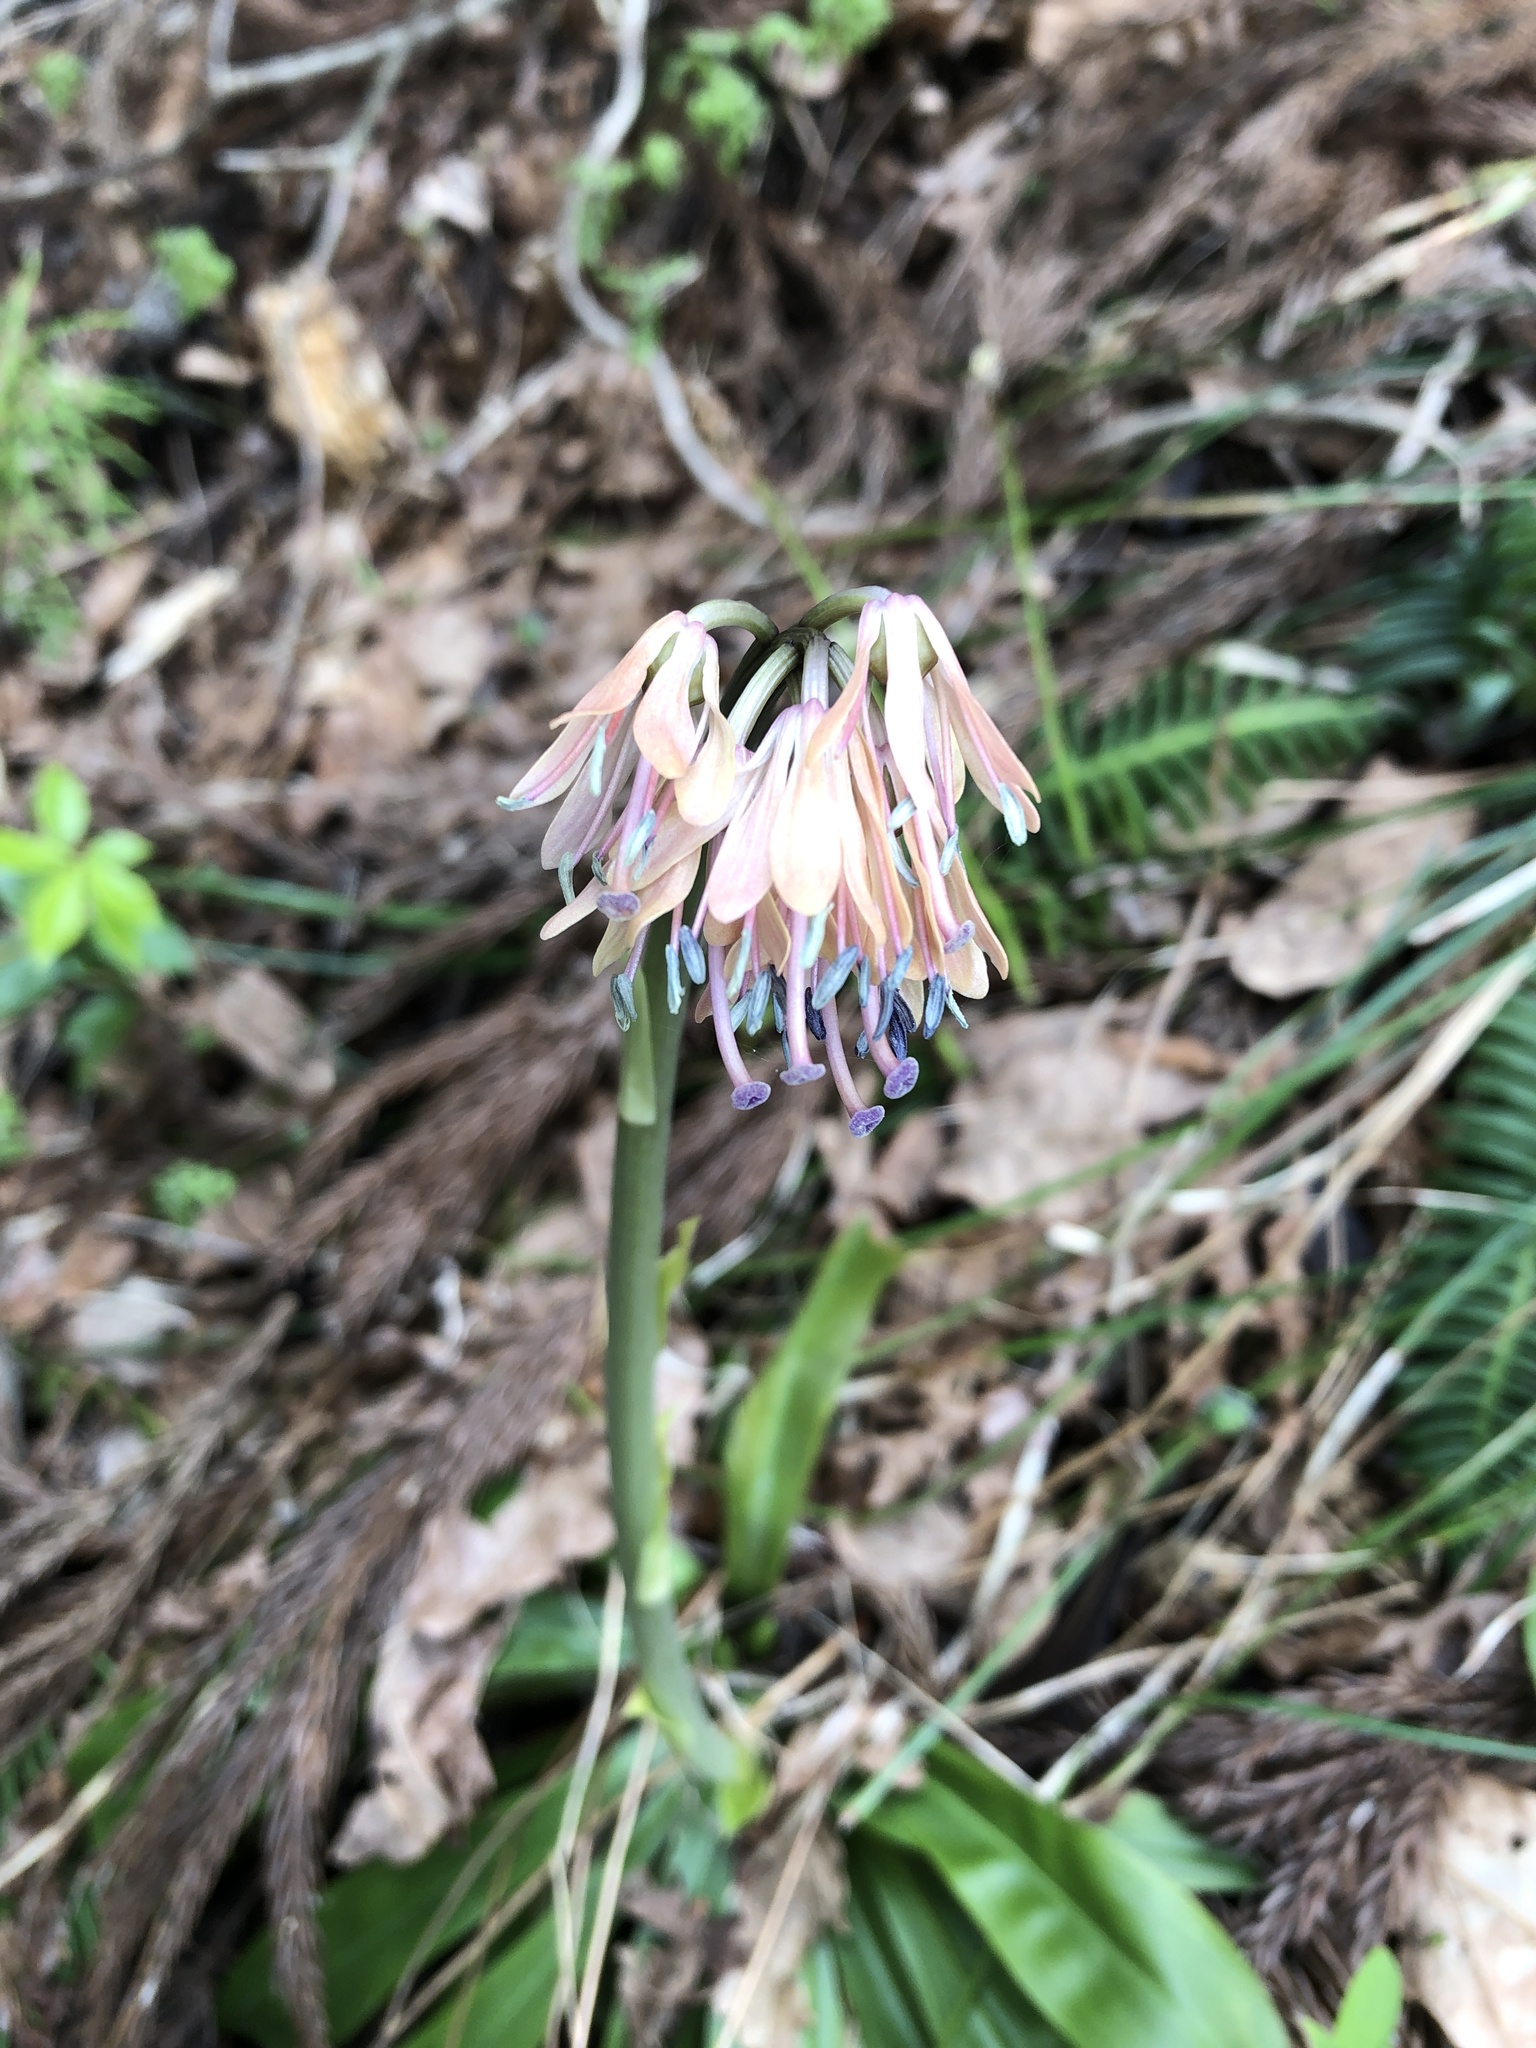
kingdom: Plantae
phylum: Tracheophyta
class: Liliopsida
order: Liliales
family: Melanthiaceae
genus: Helonias
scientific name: Helonias orientalis
